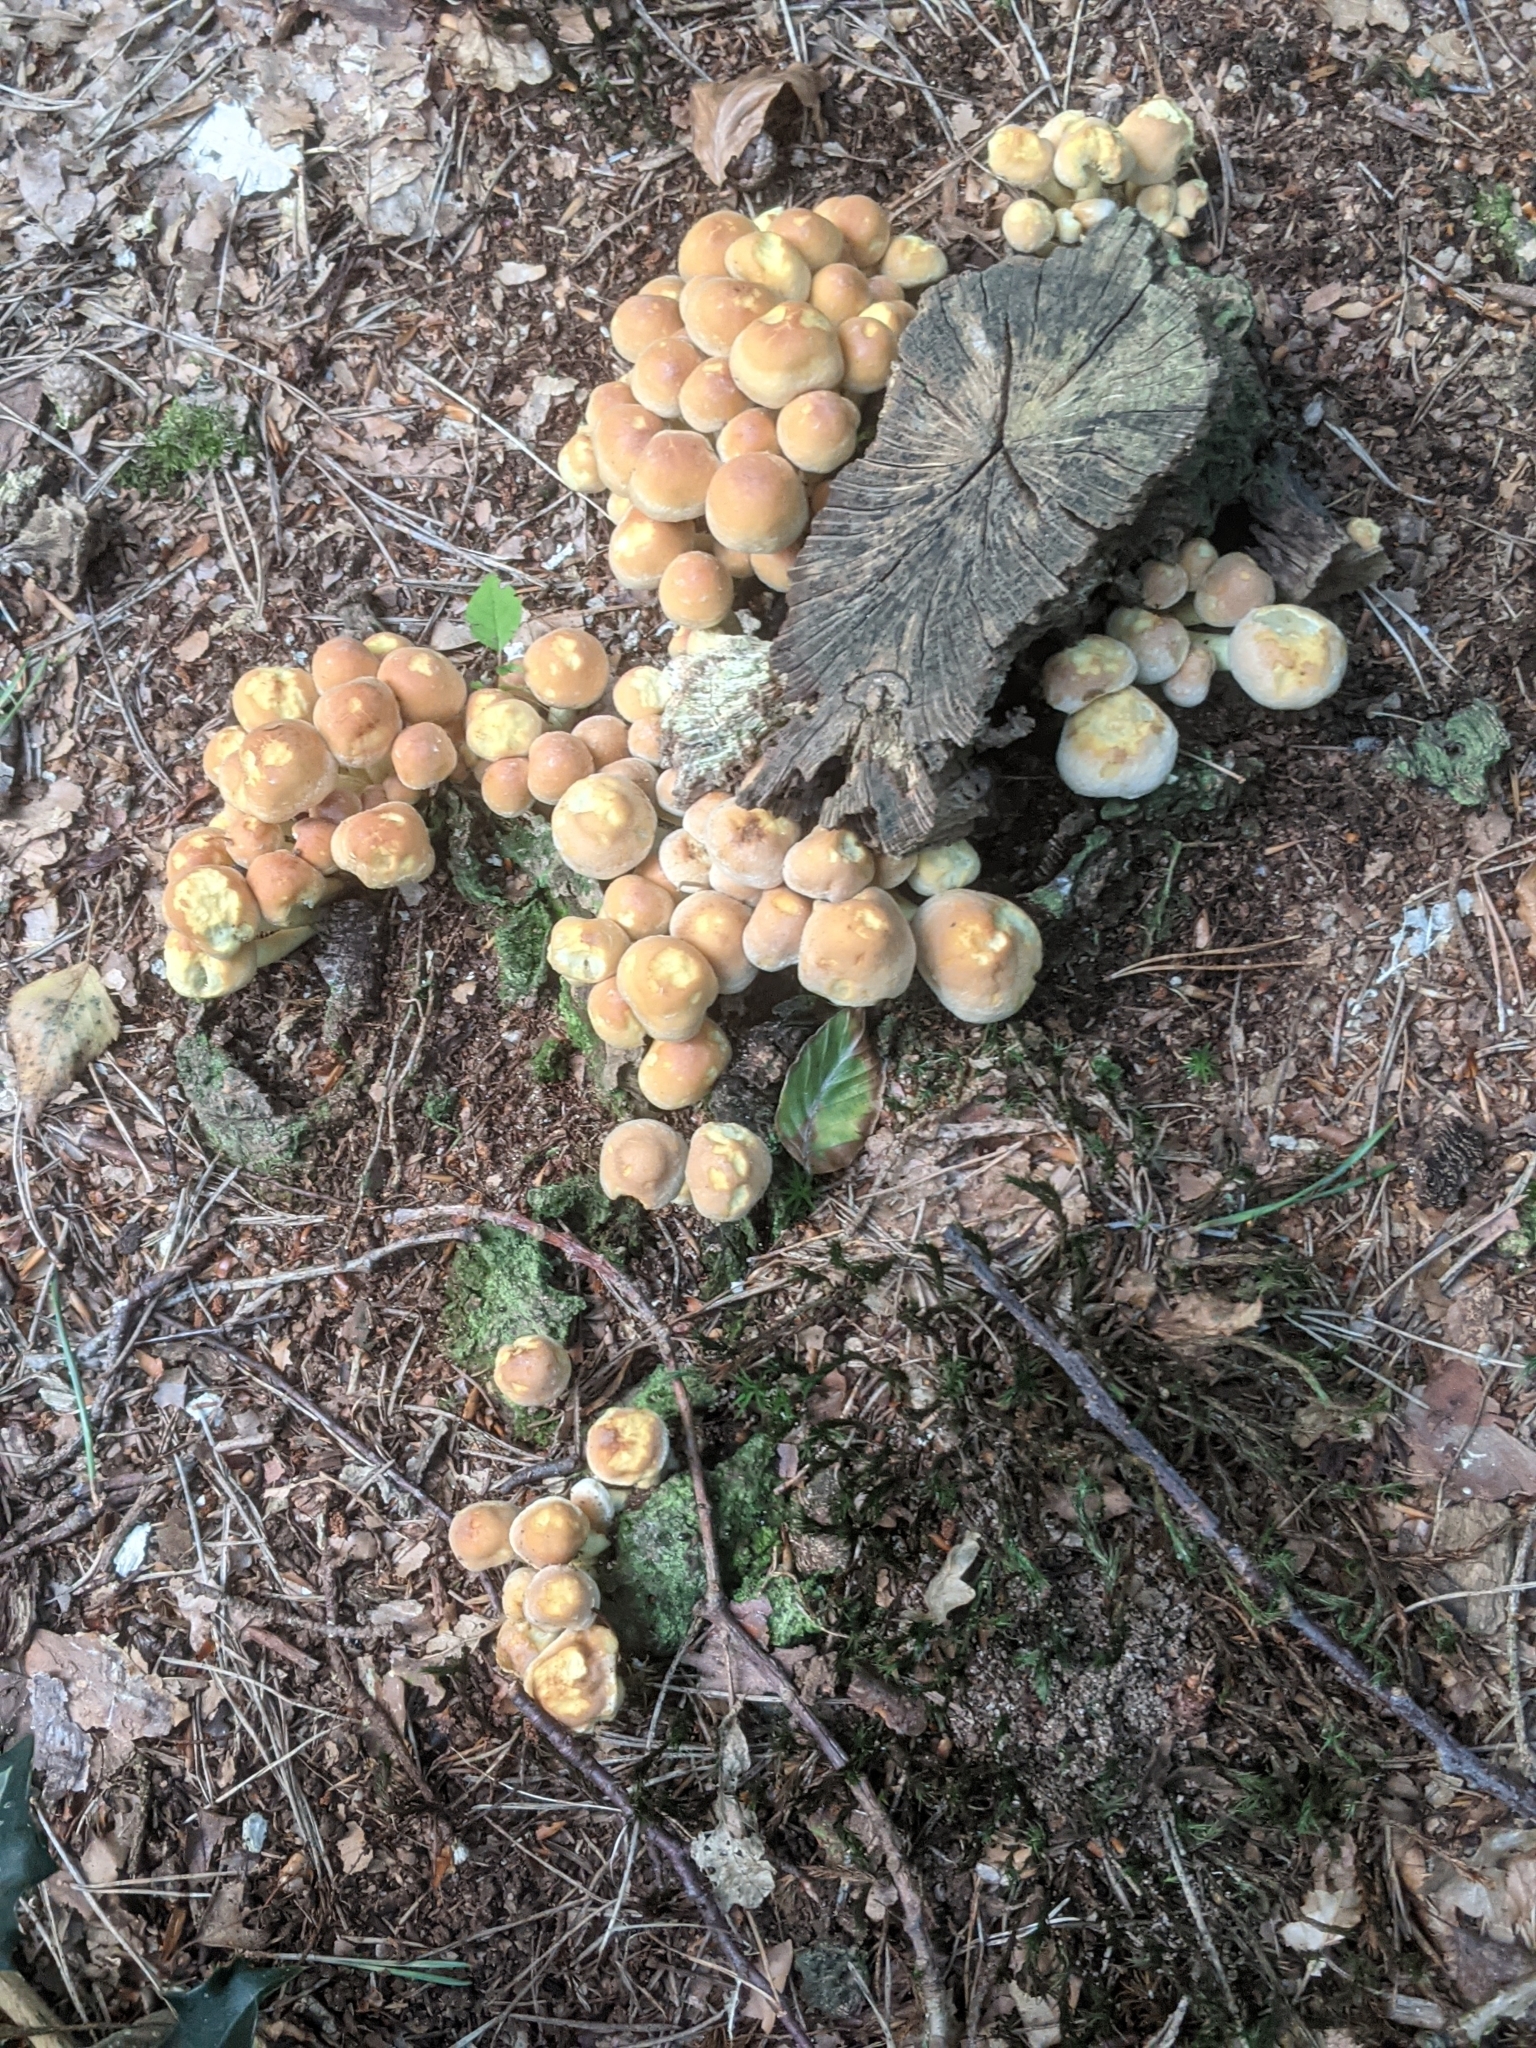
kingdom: Fungi
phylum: Basidiomycota
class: Agaricomycetes
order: Agaricales
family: Strophariaceae
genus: Hypholoma
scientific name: Hypholoma fasciculare
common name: Sulphur tuft
